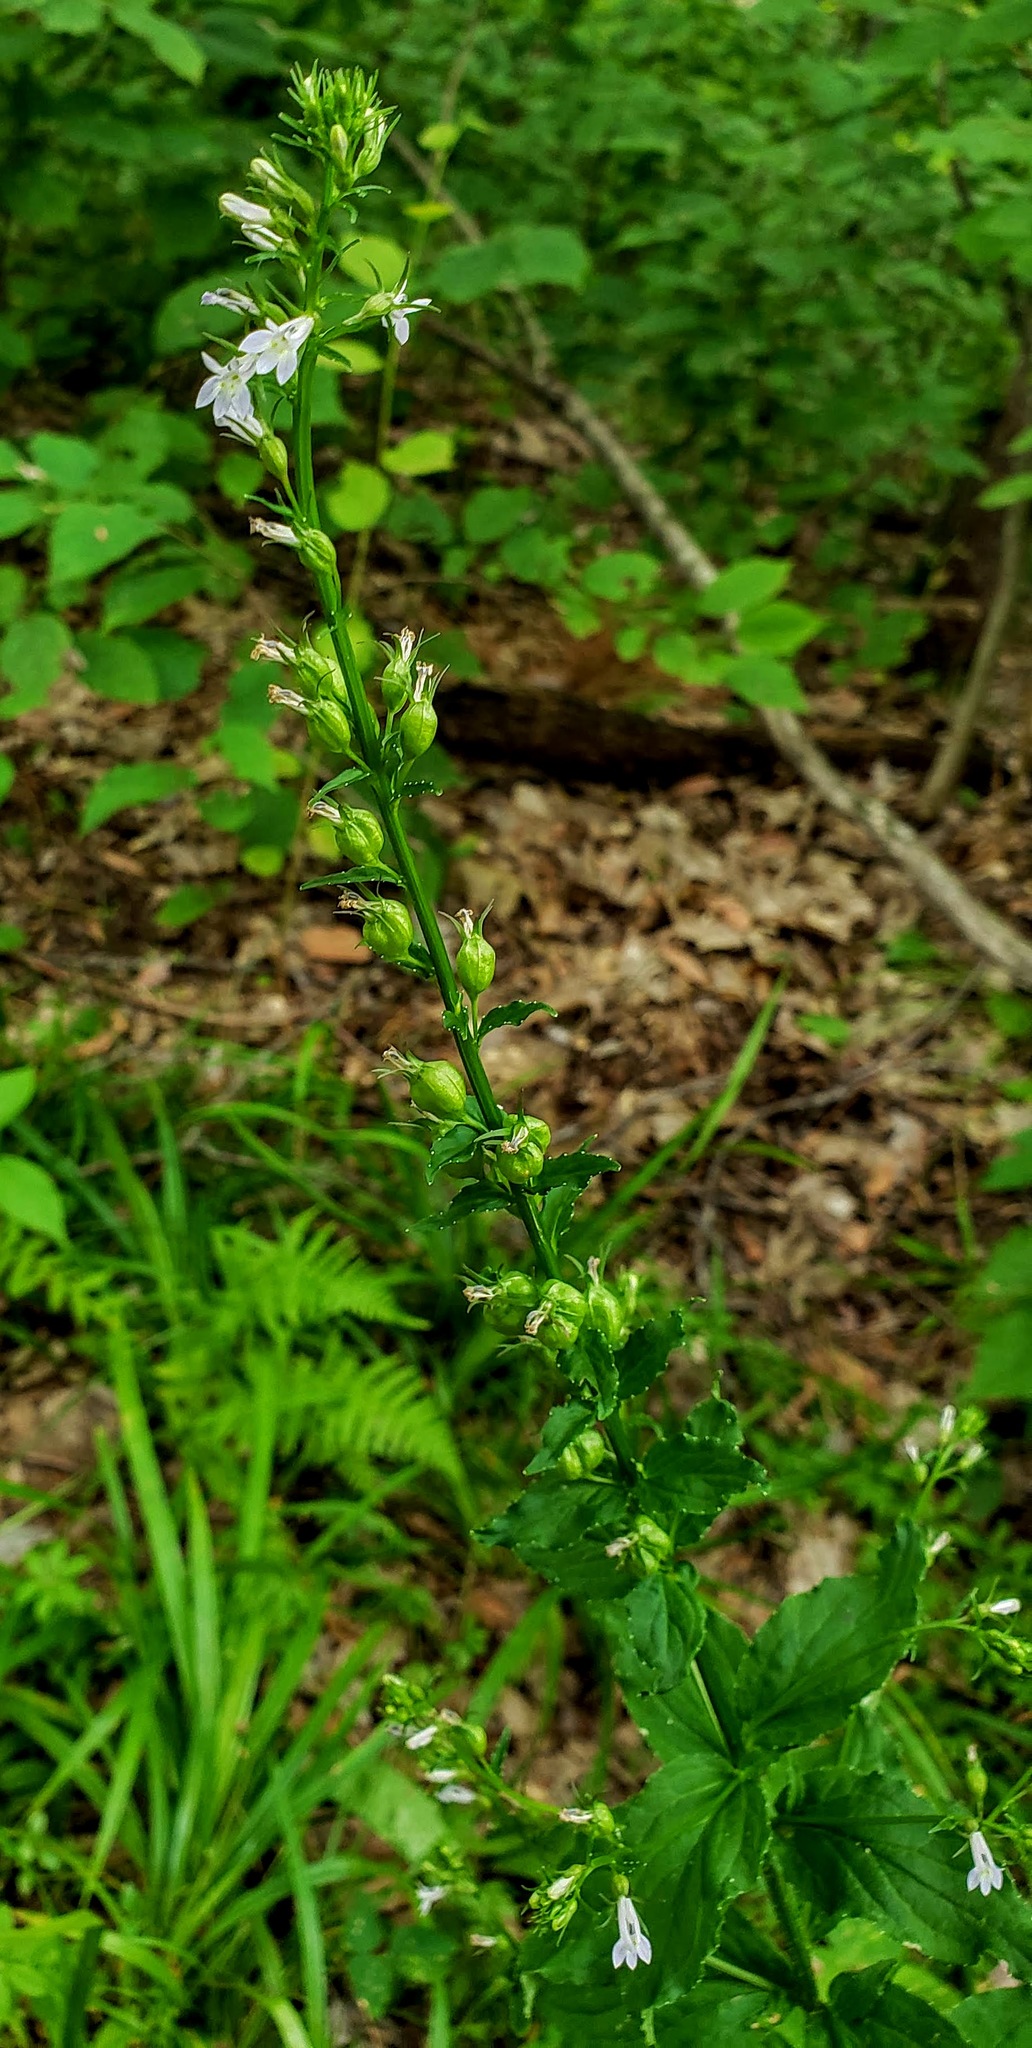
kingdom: Plantae
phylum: Tracheophyta
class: Magnoliopsida
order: Asterales
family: Campanulaceae
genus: Lobelia
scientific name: Lobelia inflata
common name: Indian tobacco
